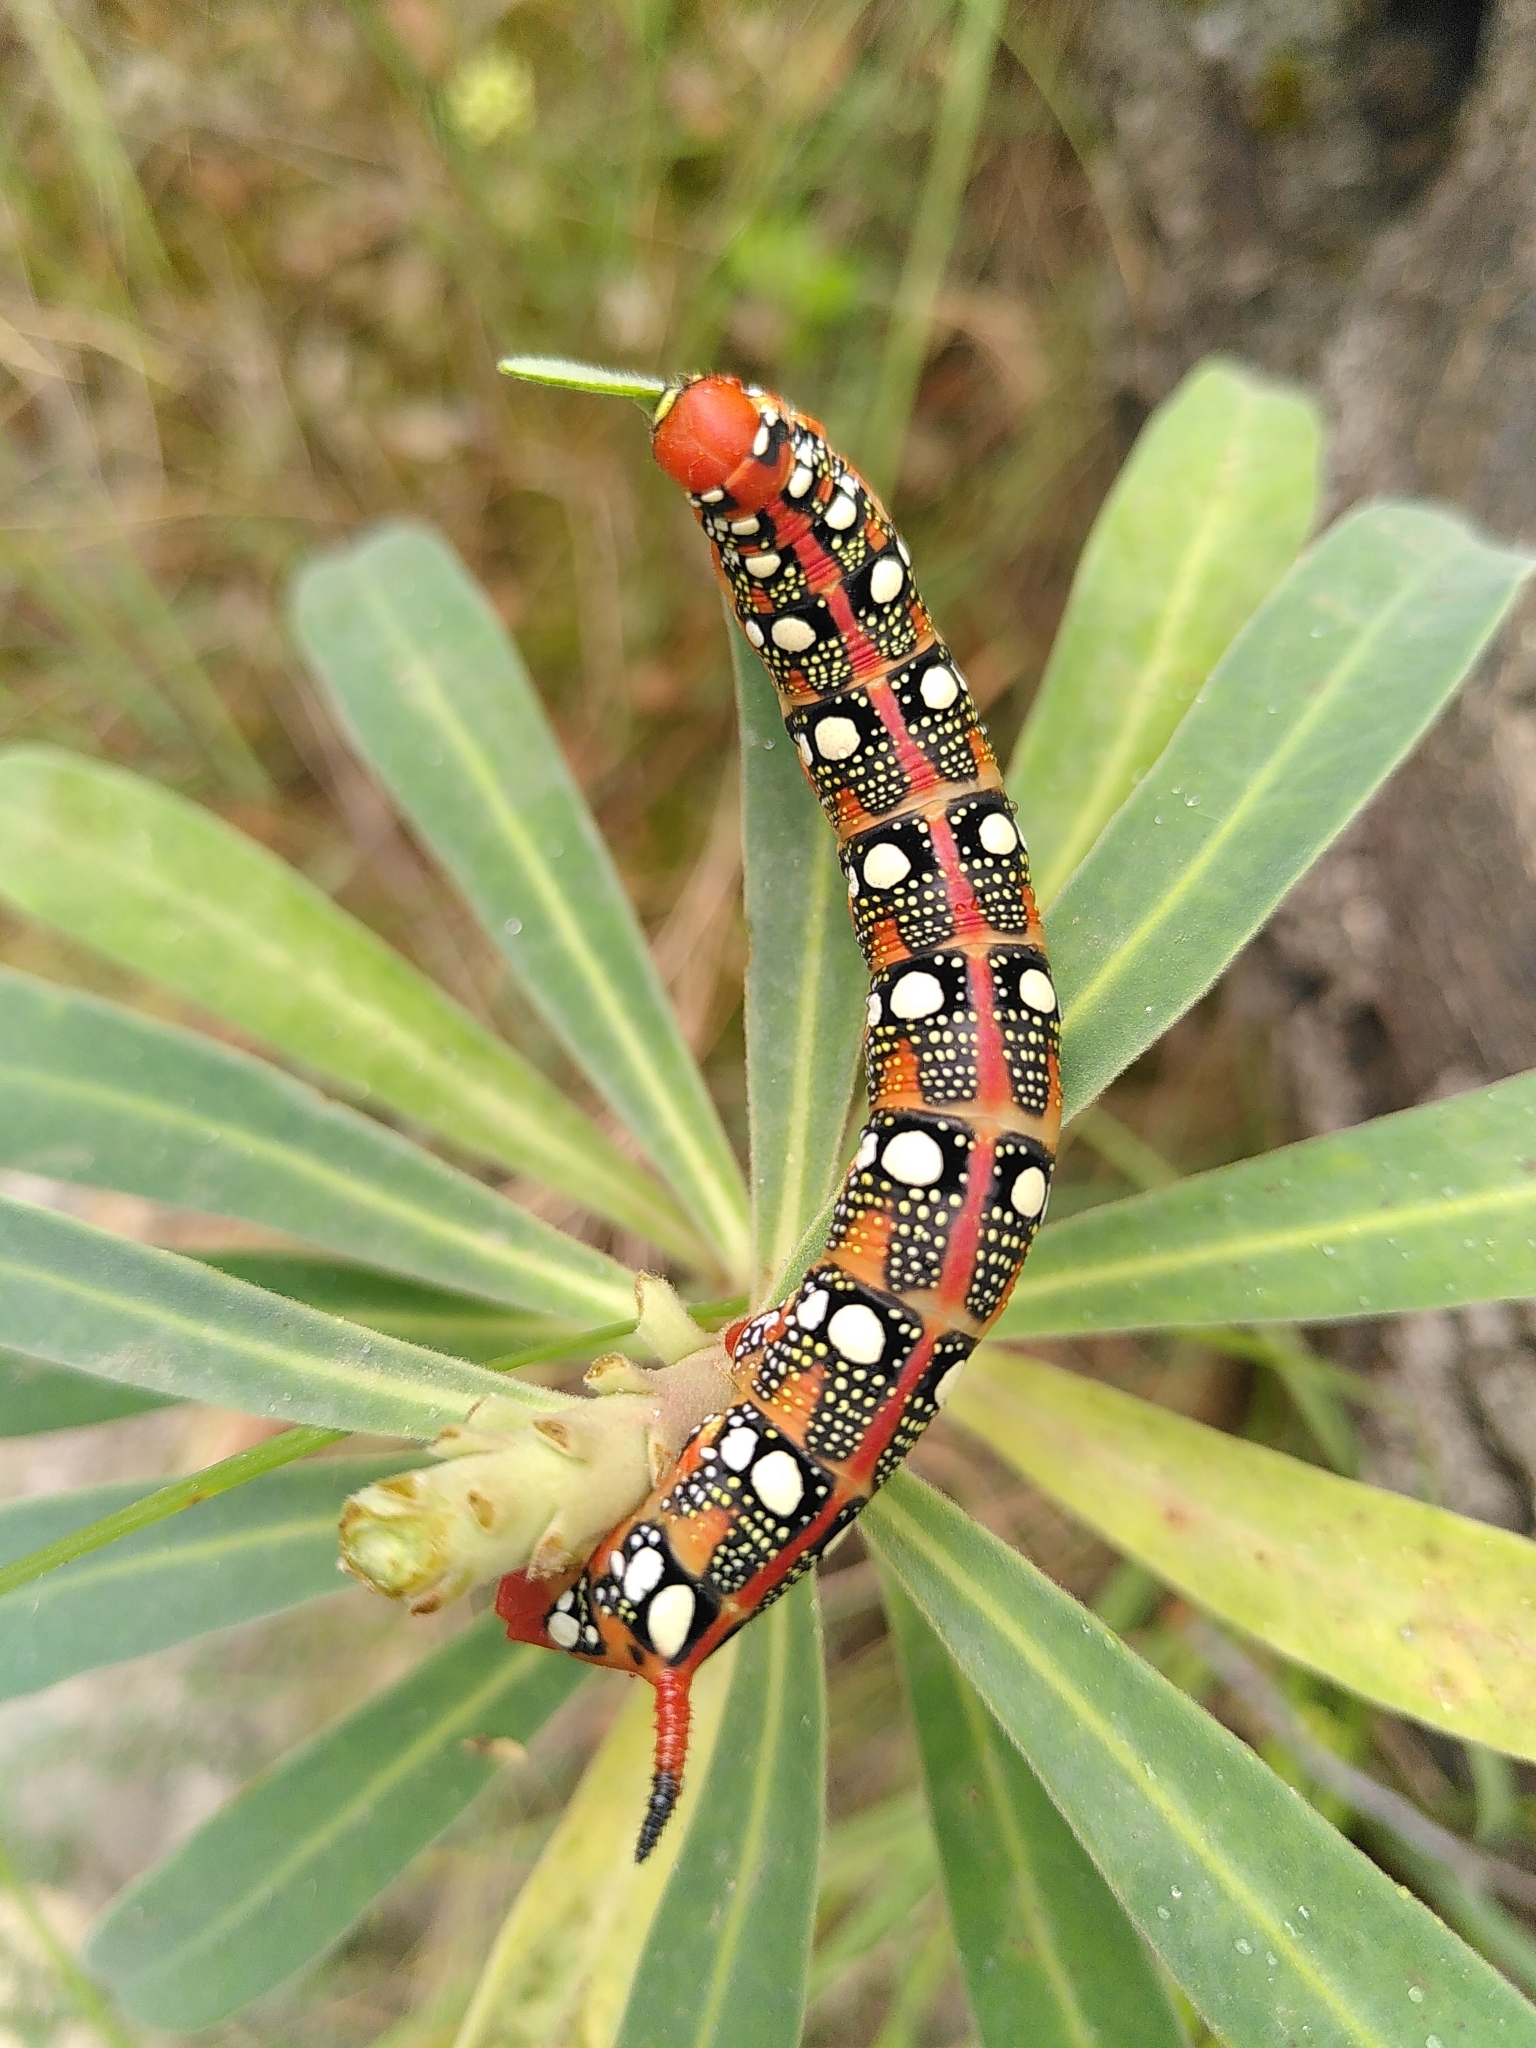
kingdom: Animalia
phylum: Arthropoda
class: Insecta
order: Lepidoptera
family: Sphingidae
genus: Hyles
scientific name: Hyles euphorbiae
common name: Spurge hawk-moth
